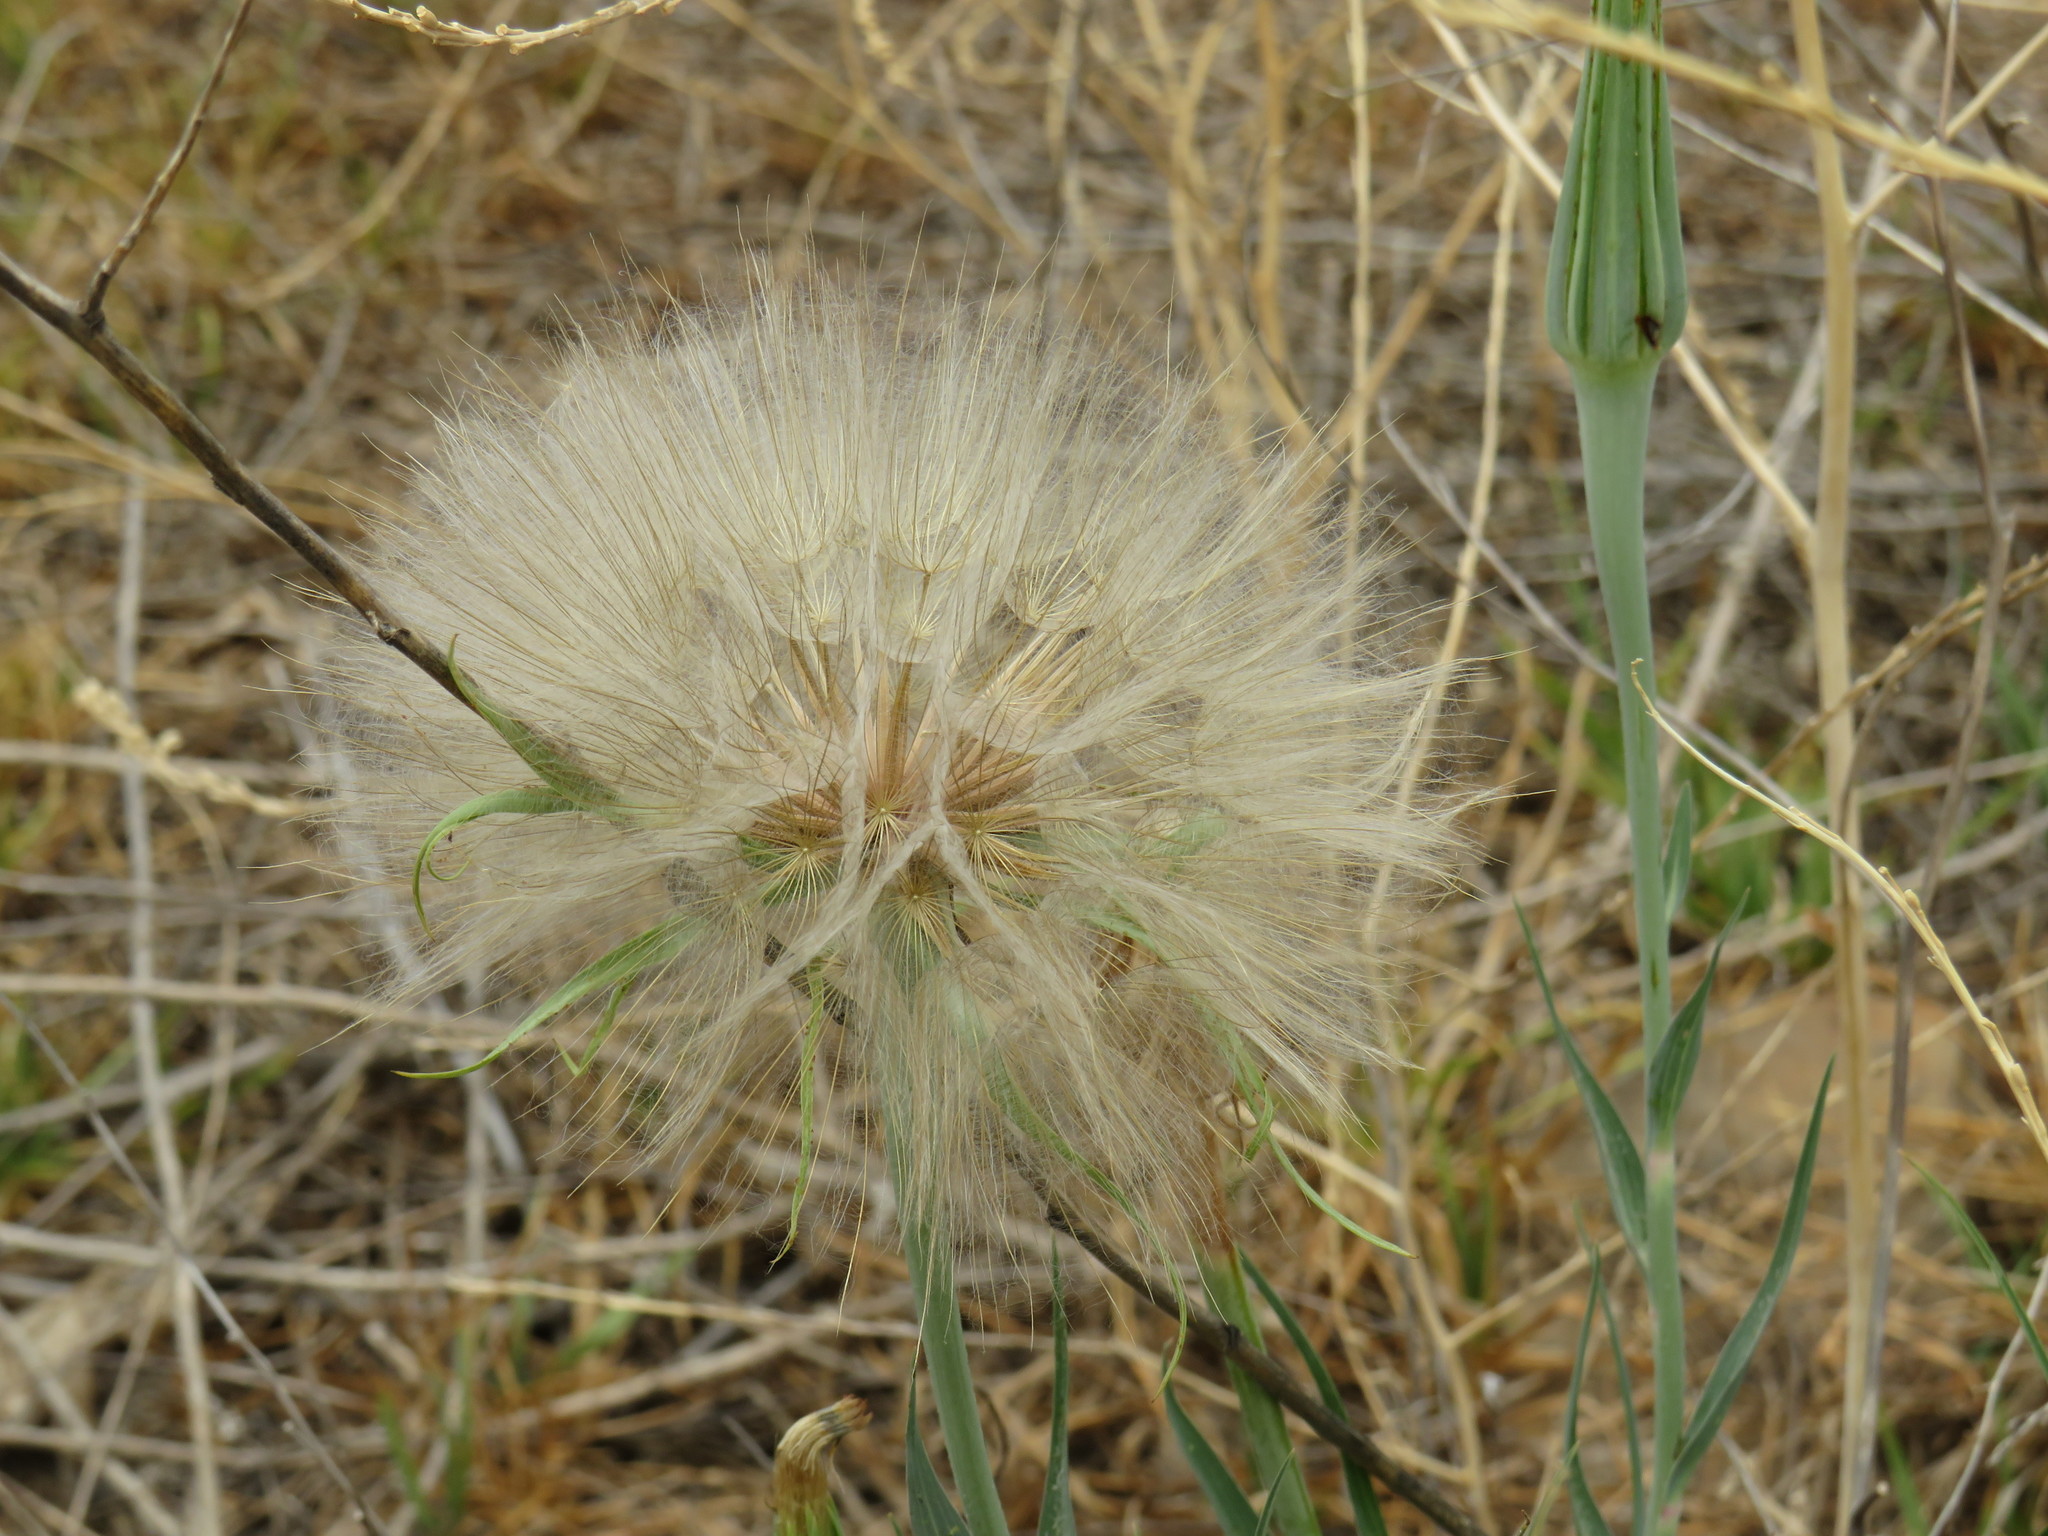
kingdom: Plantae
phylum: Tracheophyta
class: Magnoliopsida
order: Asterales
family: Asteraceae
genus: Tragopogon
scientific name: Tragopogon dubius
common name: Yellow salsify
